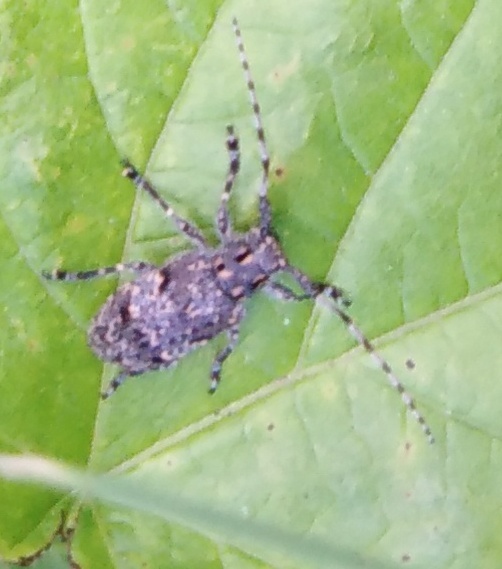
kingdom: Animalia
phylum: Arthropoda
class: Insecta
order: Coleoptera
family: Cerambycidae
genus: Mesosa
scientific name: Mesosa myops
